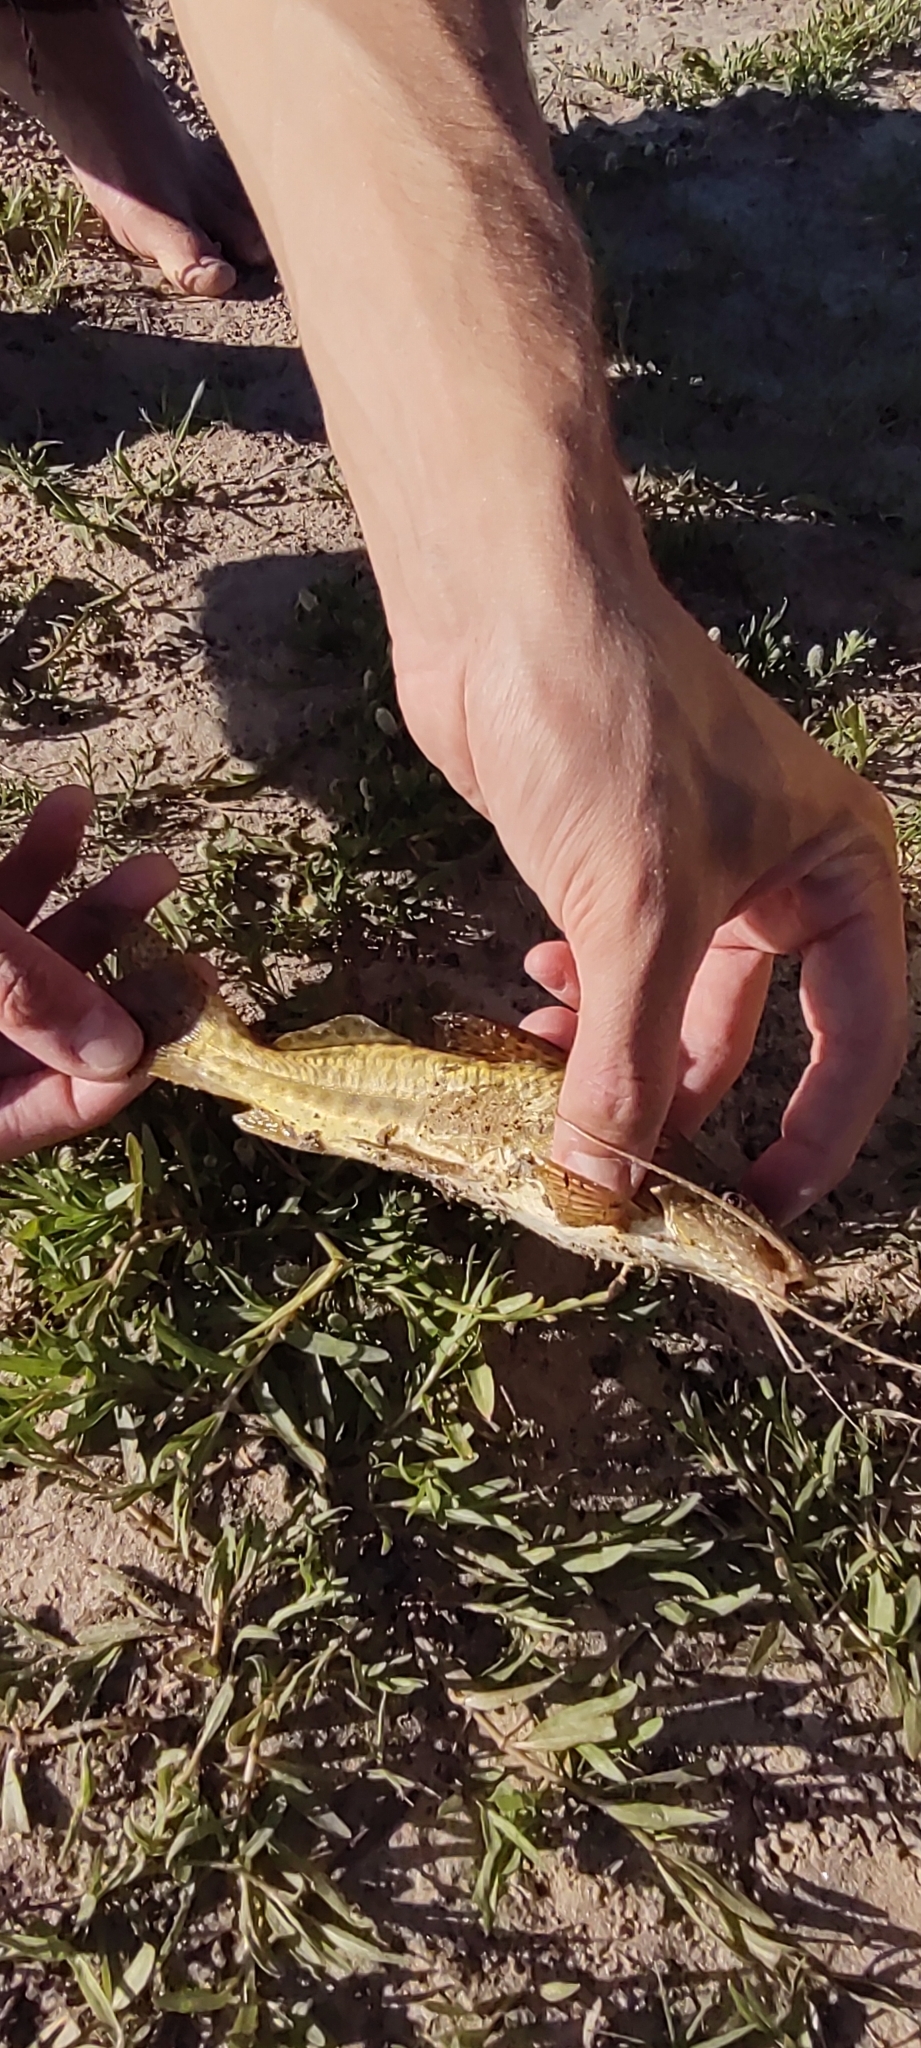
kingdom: Animalia
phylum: Chordata
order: Siluriformes
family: Pimelodidae
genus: Pimelodus
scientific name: Pimelodus maculatus
